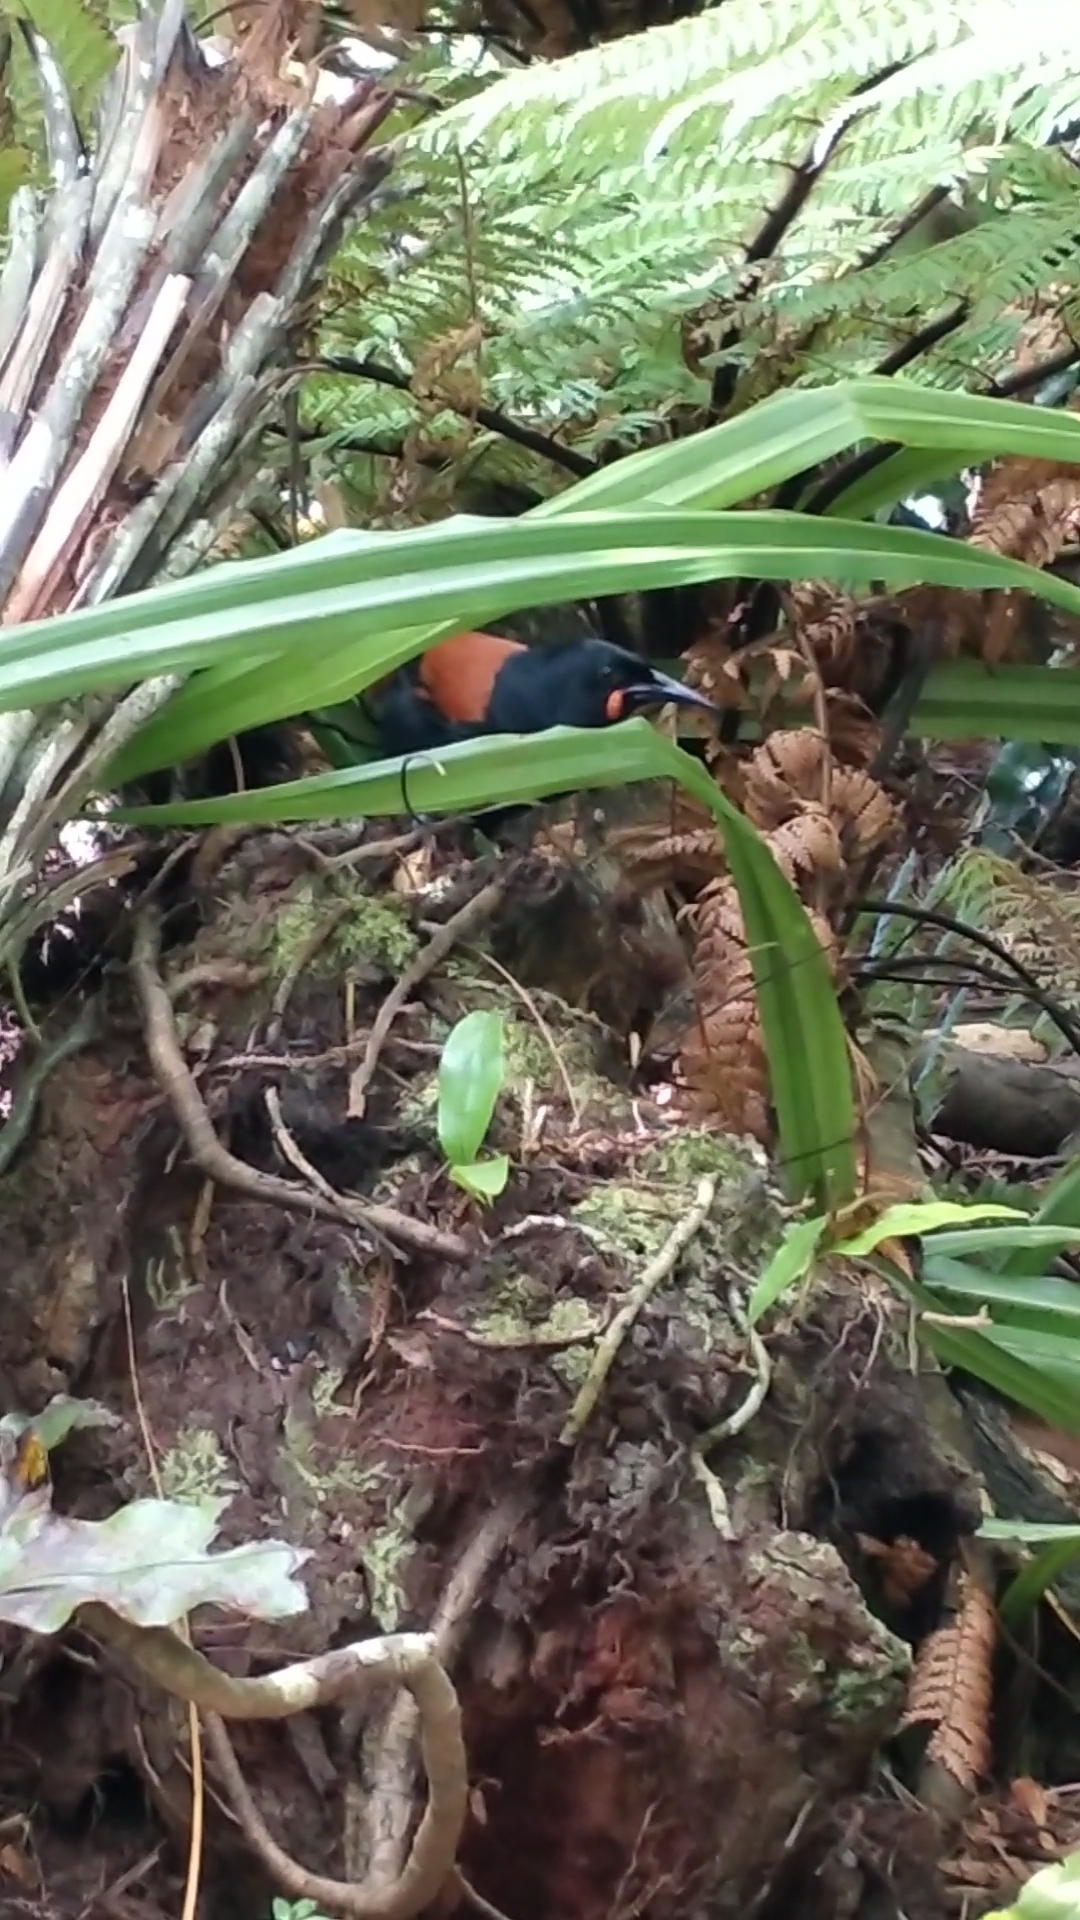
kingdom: Animalia
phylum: Chordata
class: Aves
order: Passeriformes
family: Callaeatidae
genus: Philesturnus
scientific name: Philesturnus carunculatus
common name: South island saddleback
